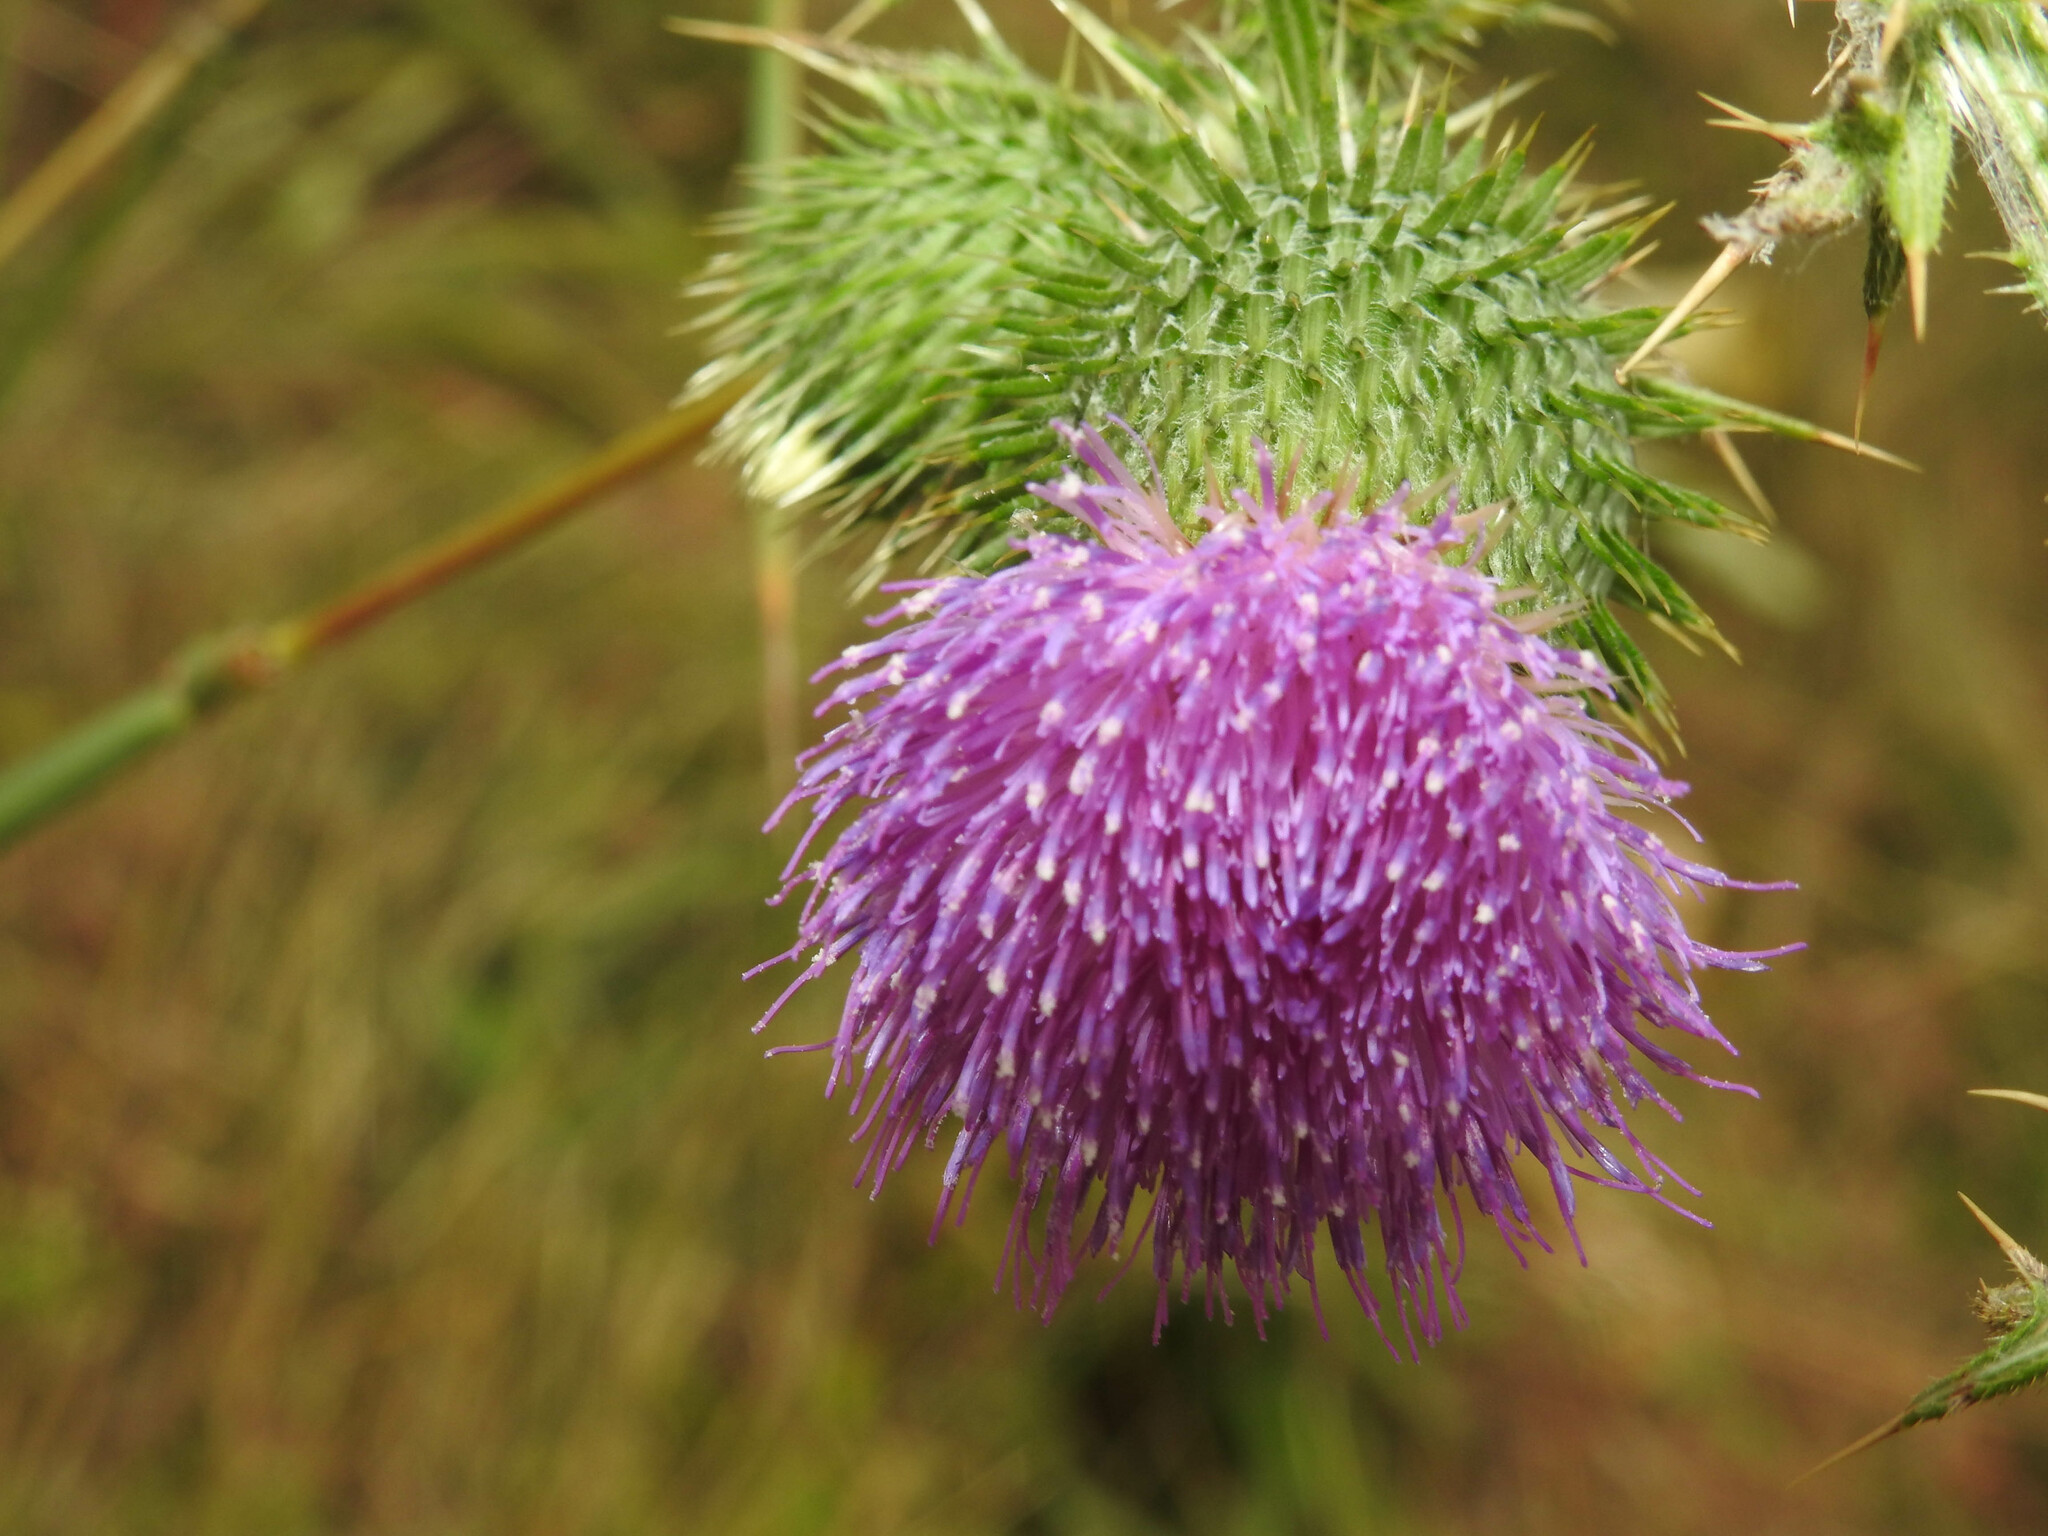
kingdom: Plantae
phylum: Tracheophyta
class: Magnoliopsida
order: Asterales
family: Asteraceae
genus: Cirsium
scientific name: Cirsium vulgare
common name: Bull thistle
